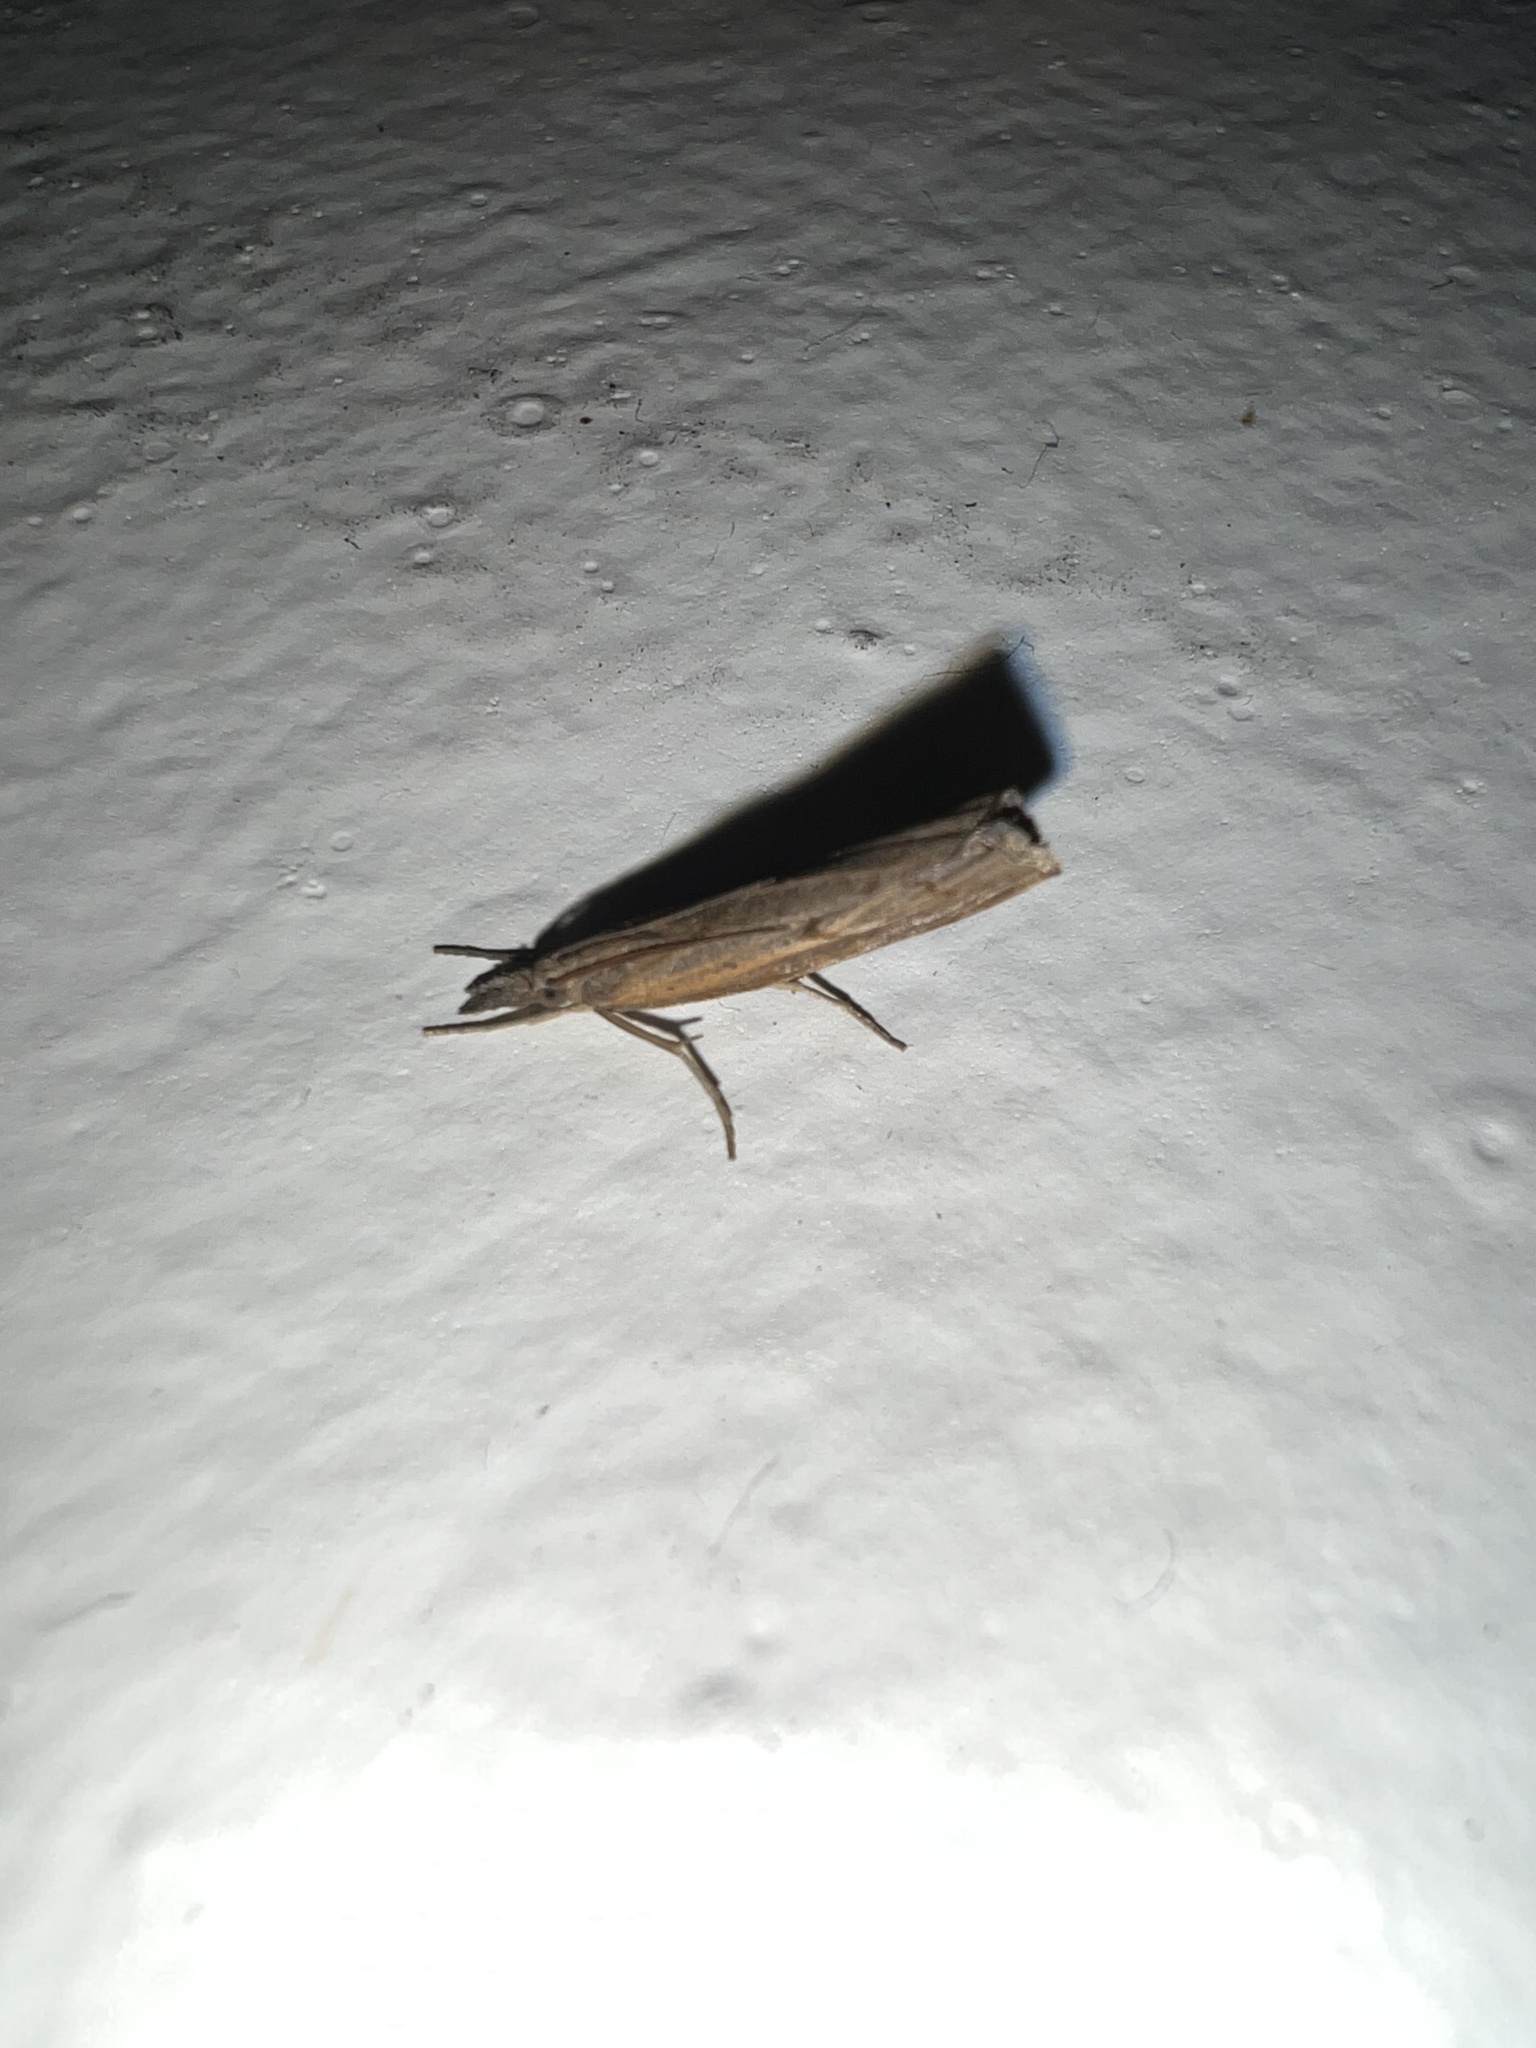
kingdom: Animalia
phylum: Arthropoda
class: Insecta
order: Lepidoptera
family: Crambidae
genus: Pediasia
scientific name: Pediasia contaminella
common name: Waste grass-veneer
